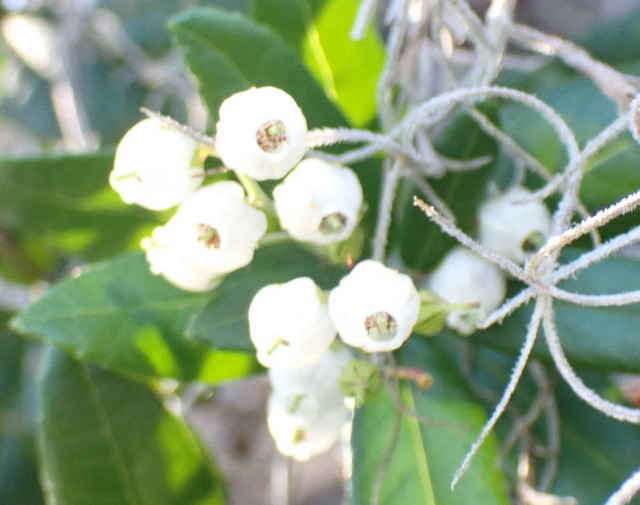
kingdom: Plantae
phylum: Tracheophyta
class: Magnoliopsida
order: Ericales
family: Ericaceae
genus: Pieris
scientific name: Pieris phillyreifolia
